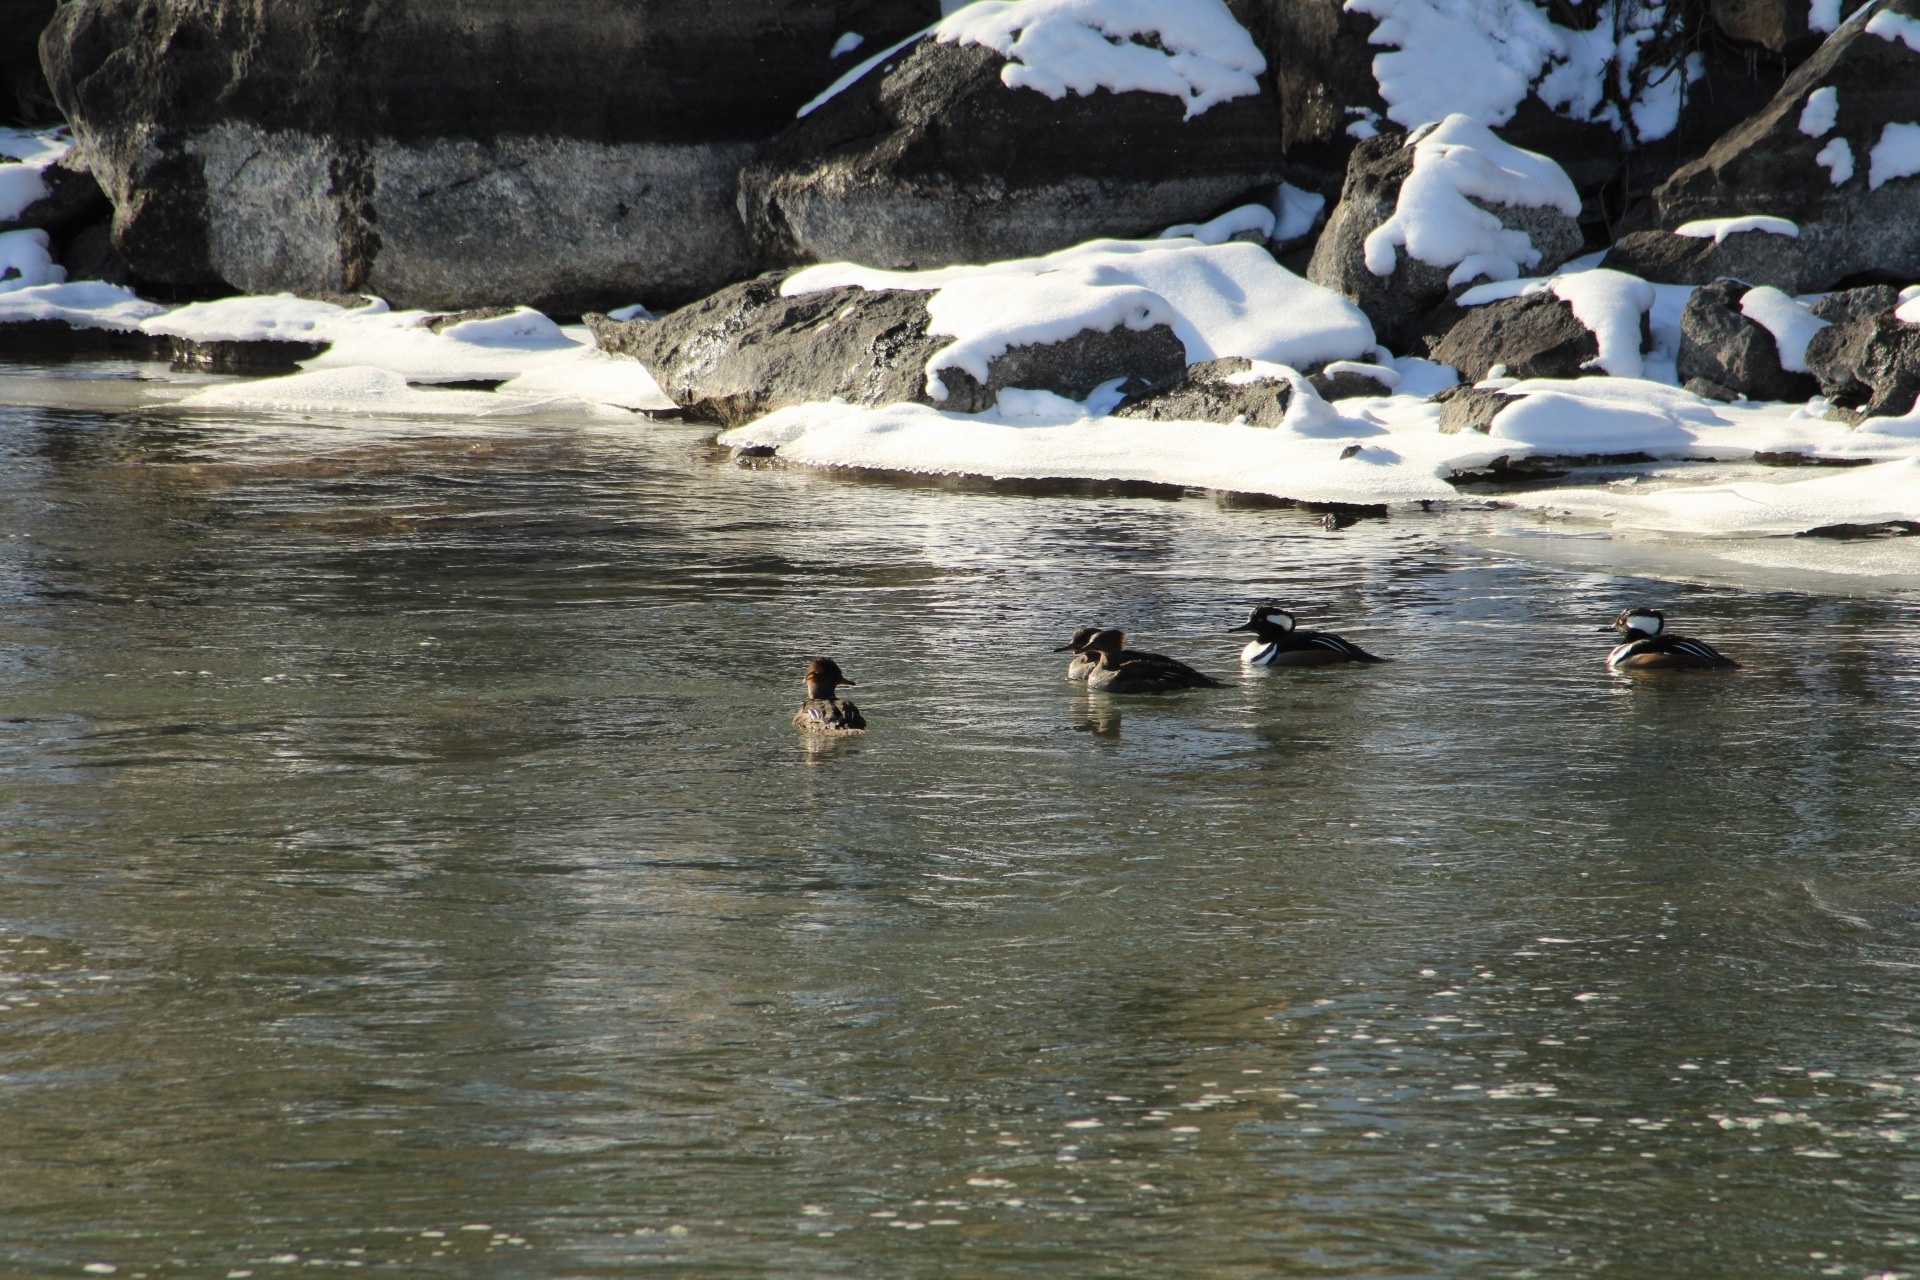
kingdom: Animalia
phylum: Chordata
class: Aves
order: Anseriformes
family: Anatidae
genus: Lophodytes
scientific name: Lophodytes cucullatus
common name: Hooded merganser
